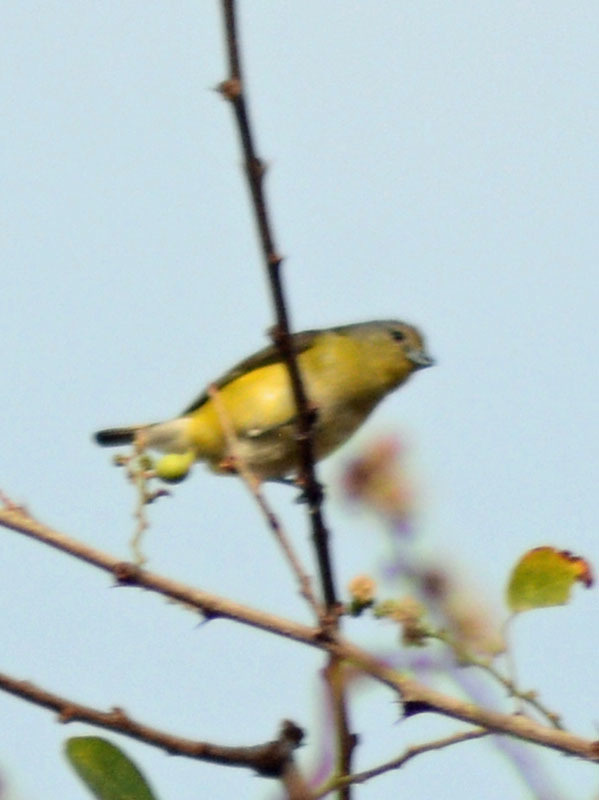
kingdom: Animalia
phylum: Chordata
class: Aves
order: Passeriformes
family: Fringillidae
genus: Euphonia
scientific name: Euphonia godmani
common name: West mexican euphonia
